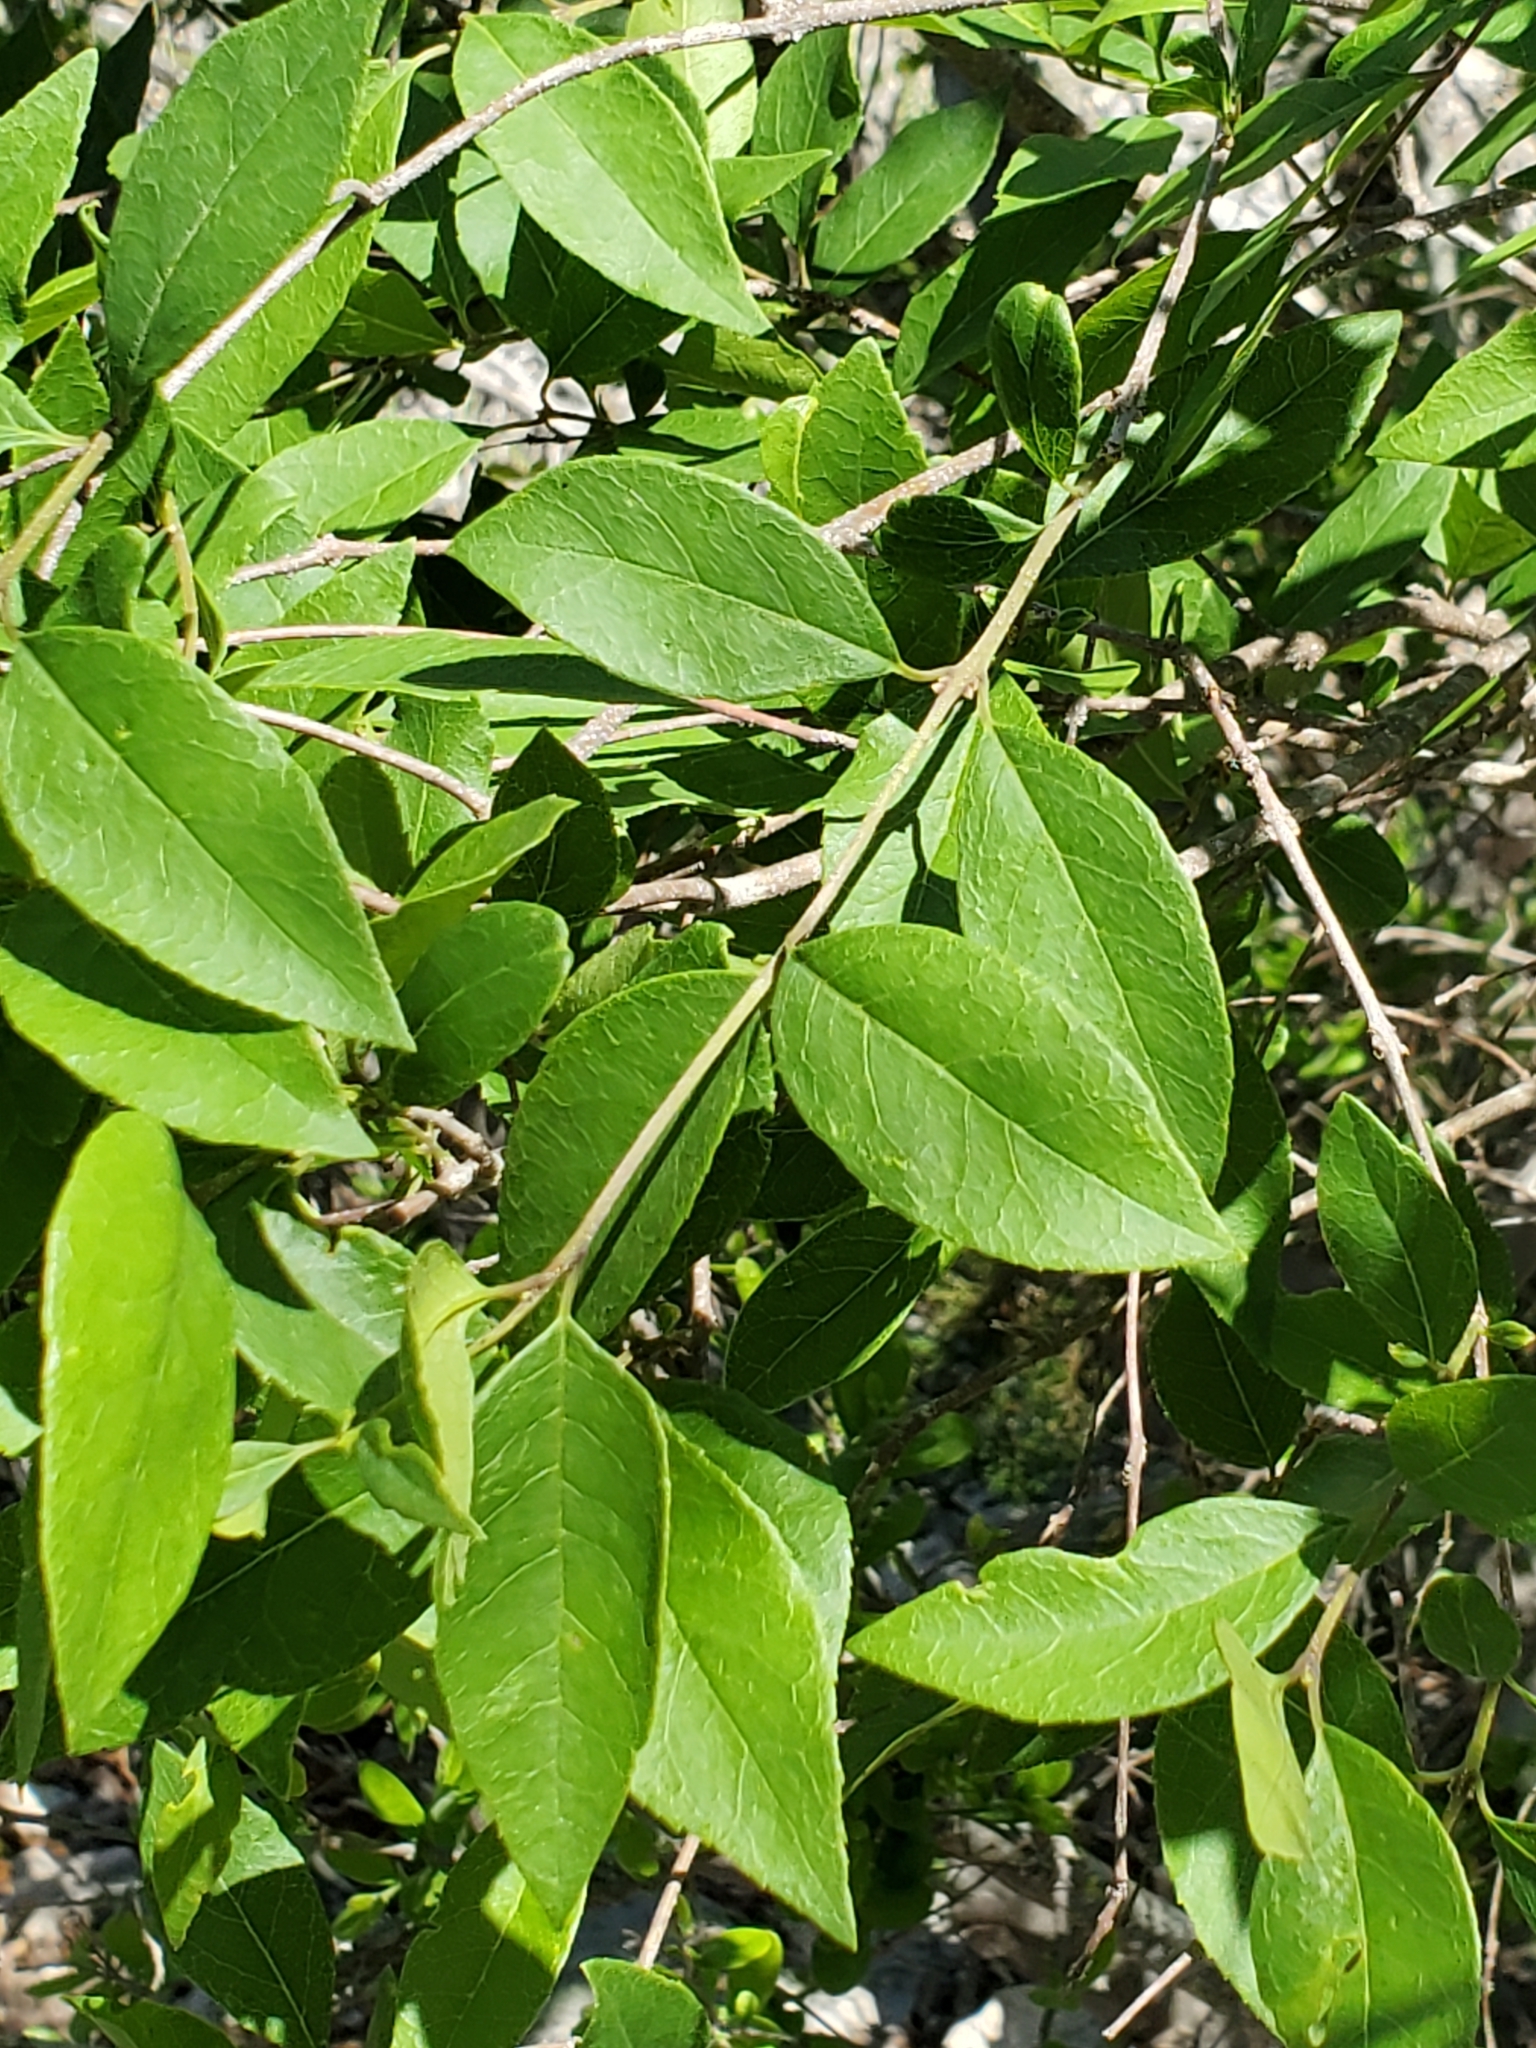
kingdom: Plantae
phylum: Tracheophyta
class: Magnoliopsida
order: Lamiales
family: Oleaceae
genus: Forestiera
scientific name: Forestiera reticulata
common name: Netleaf swamp-privet
